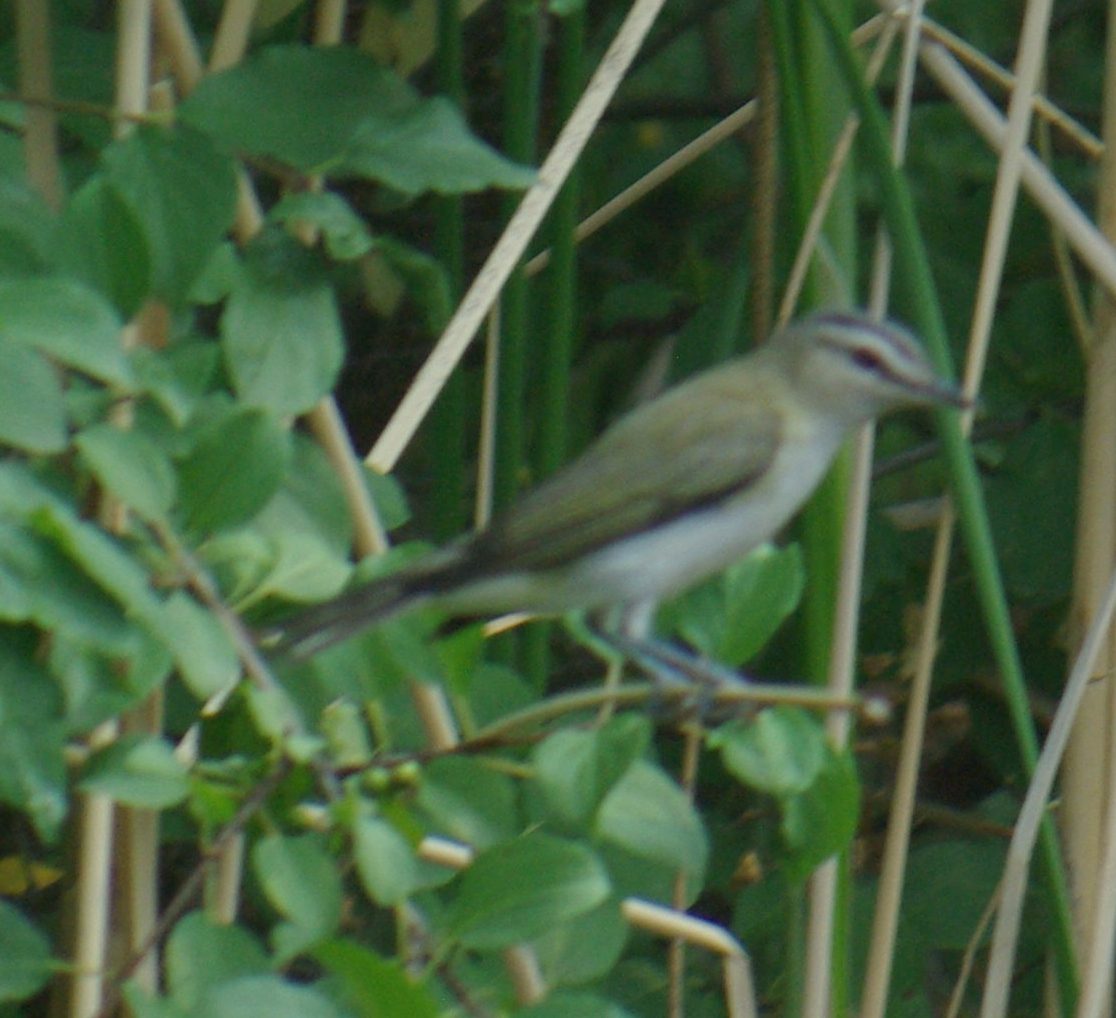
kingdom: Animalia
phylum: Chordata
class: Aves
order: Passeriformes
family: Vireonidae
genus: Vireo
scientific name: Vireo olivaceus
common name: Red-eyed vireo
